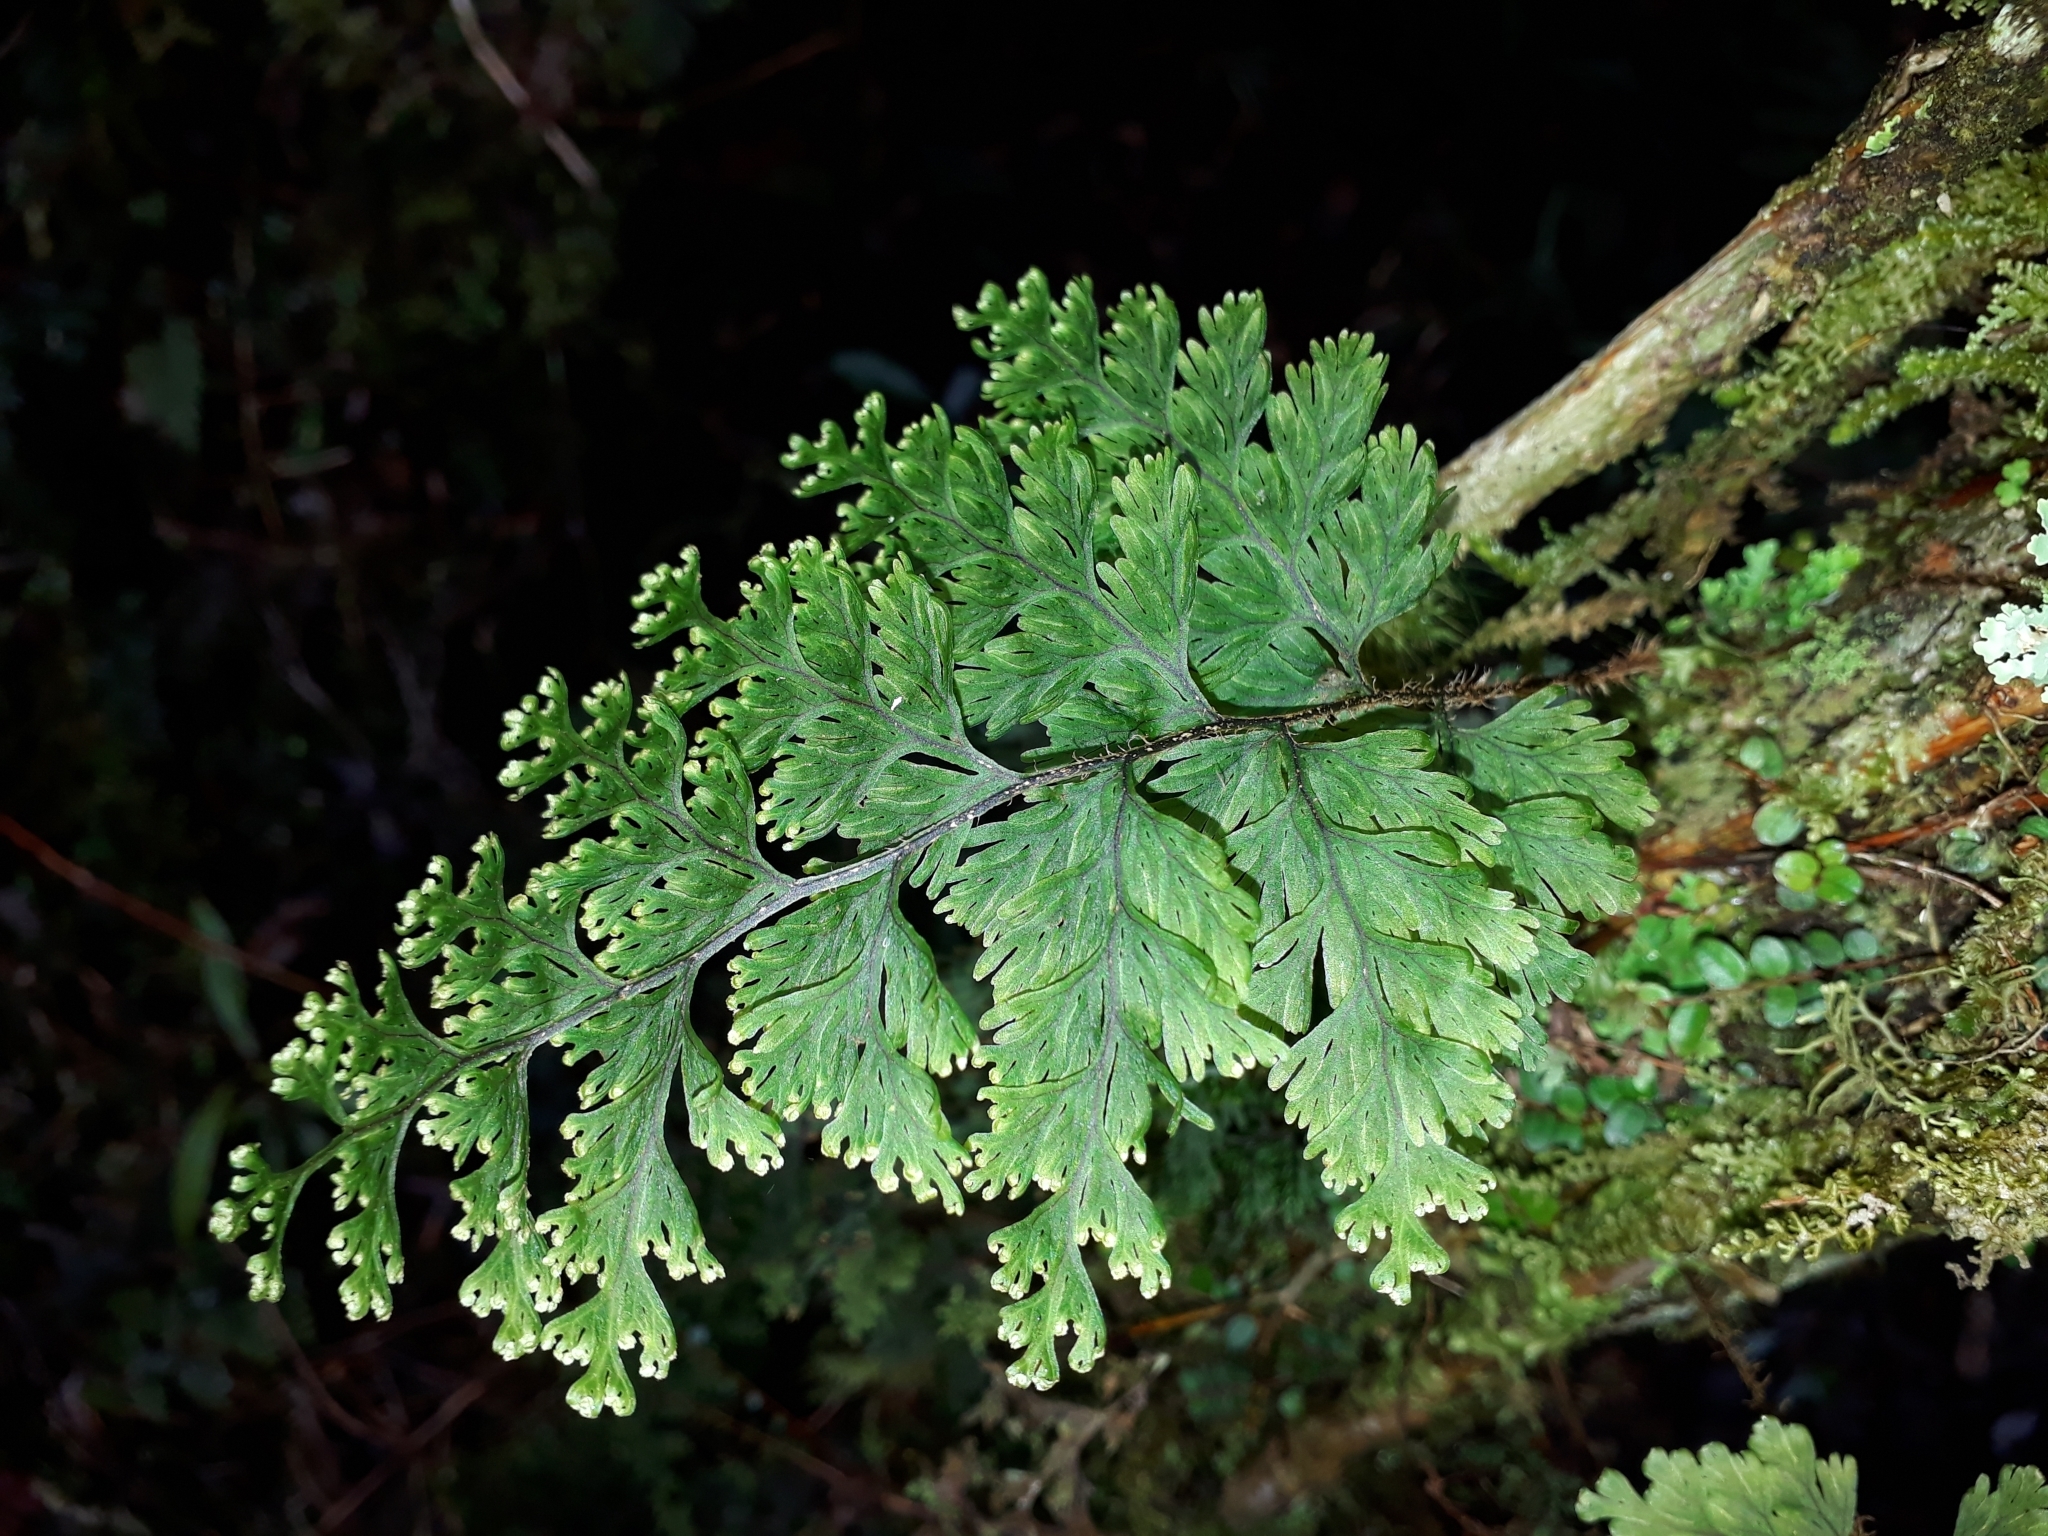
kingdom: Plantae
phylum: Tracheophyta
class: Polypodiopsida
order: Hymenophyllales
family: Hymenophyllaceae
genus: Hymenophyllum
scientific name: Hymenophyllum scabrum
